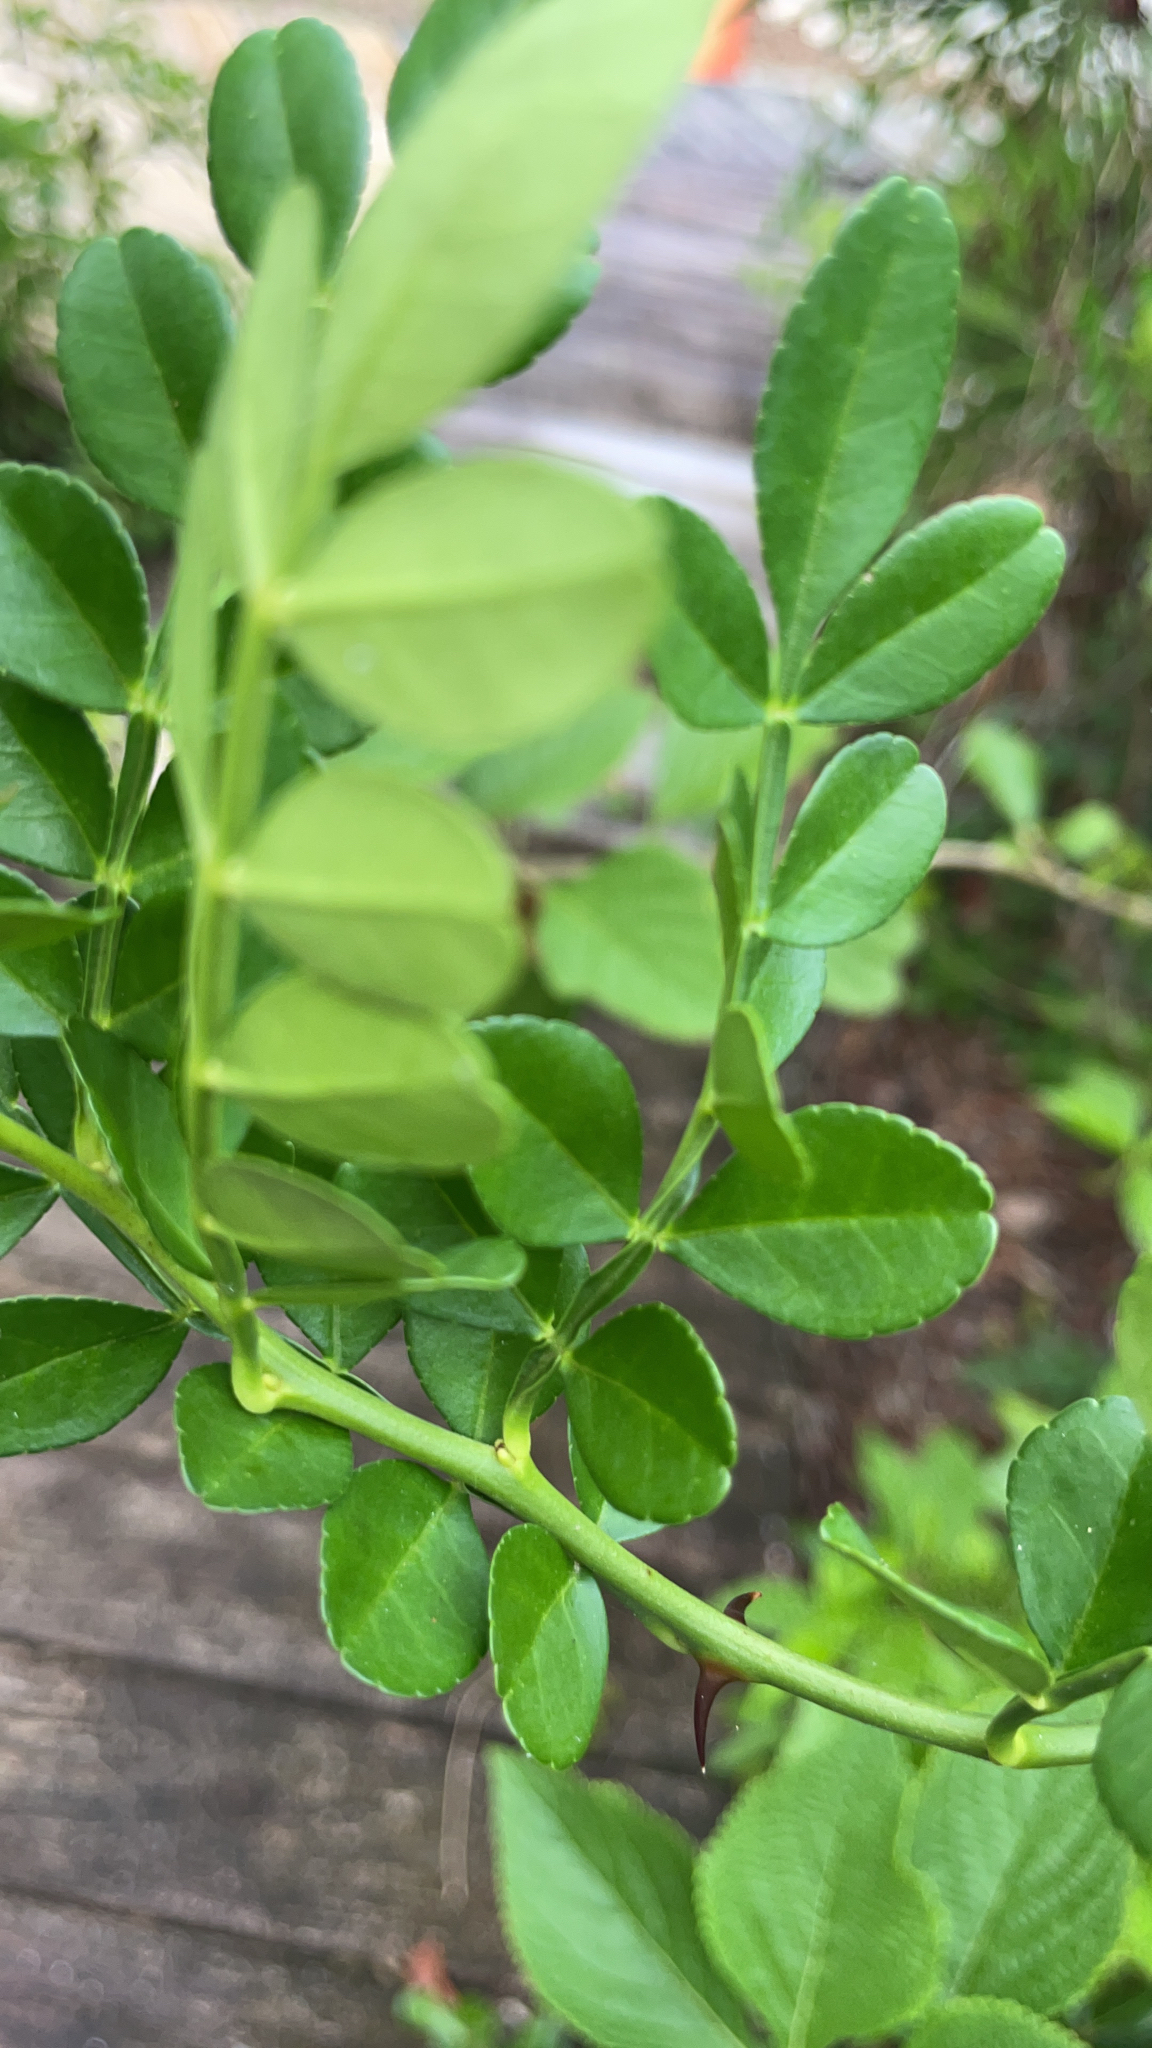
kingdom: Plantae
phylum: Tracheophyta
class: Magnoliopsida
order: Sapindales
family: Rutaceae
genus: Zanthoxylum
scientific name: Zanthoxylum fagara
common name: Lime prickly-ash
